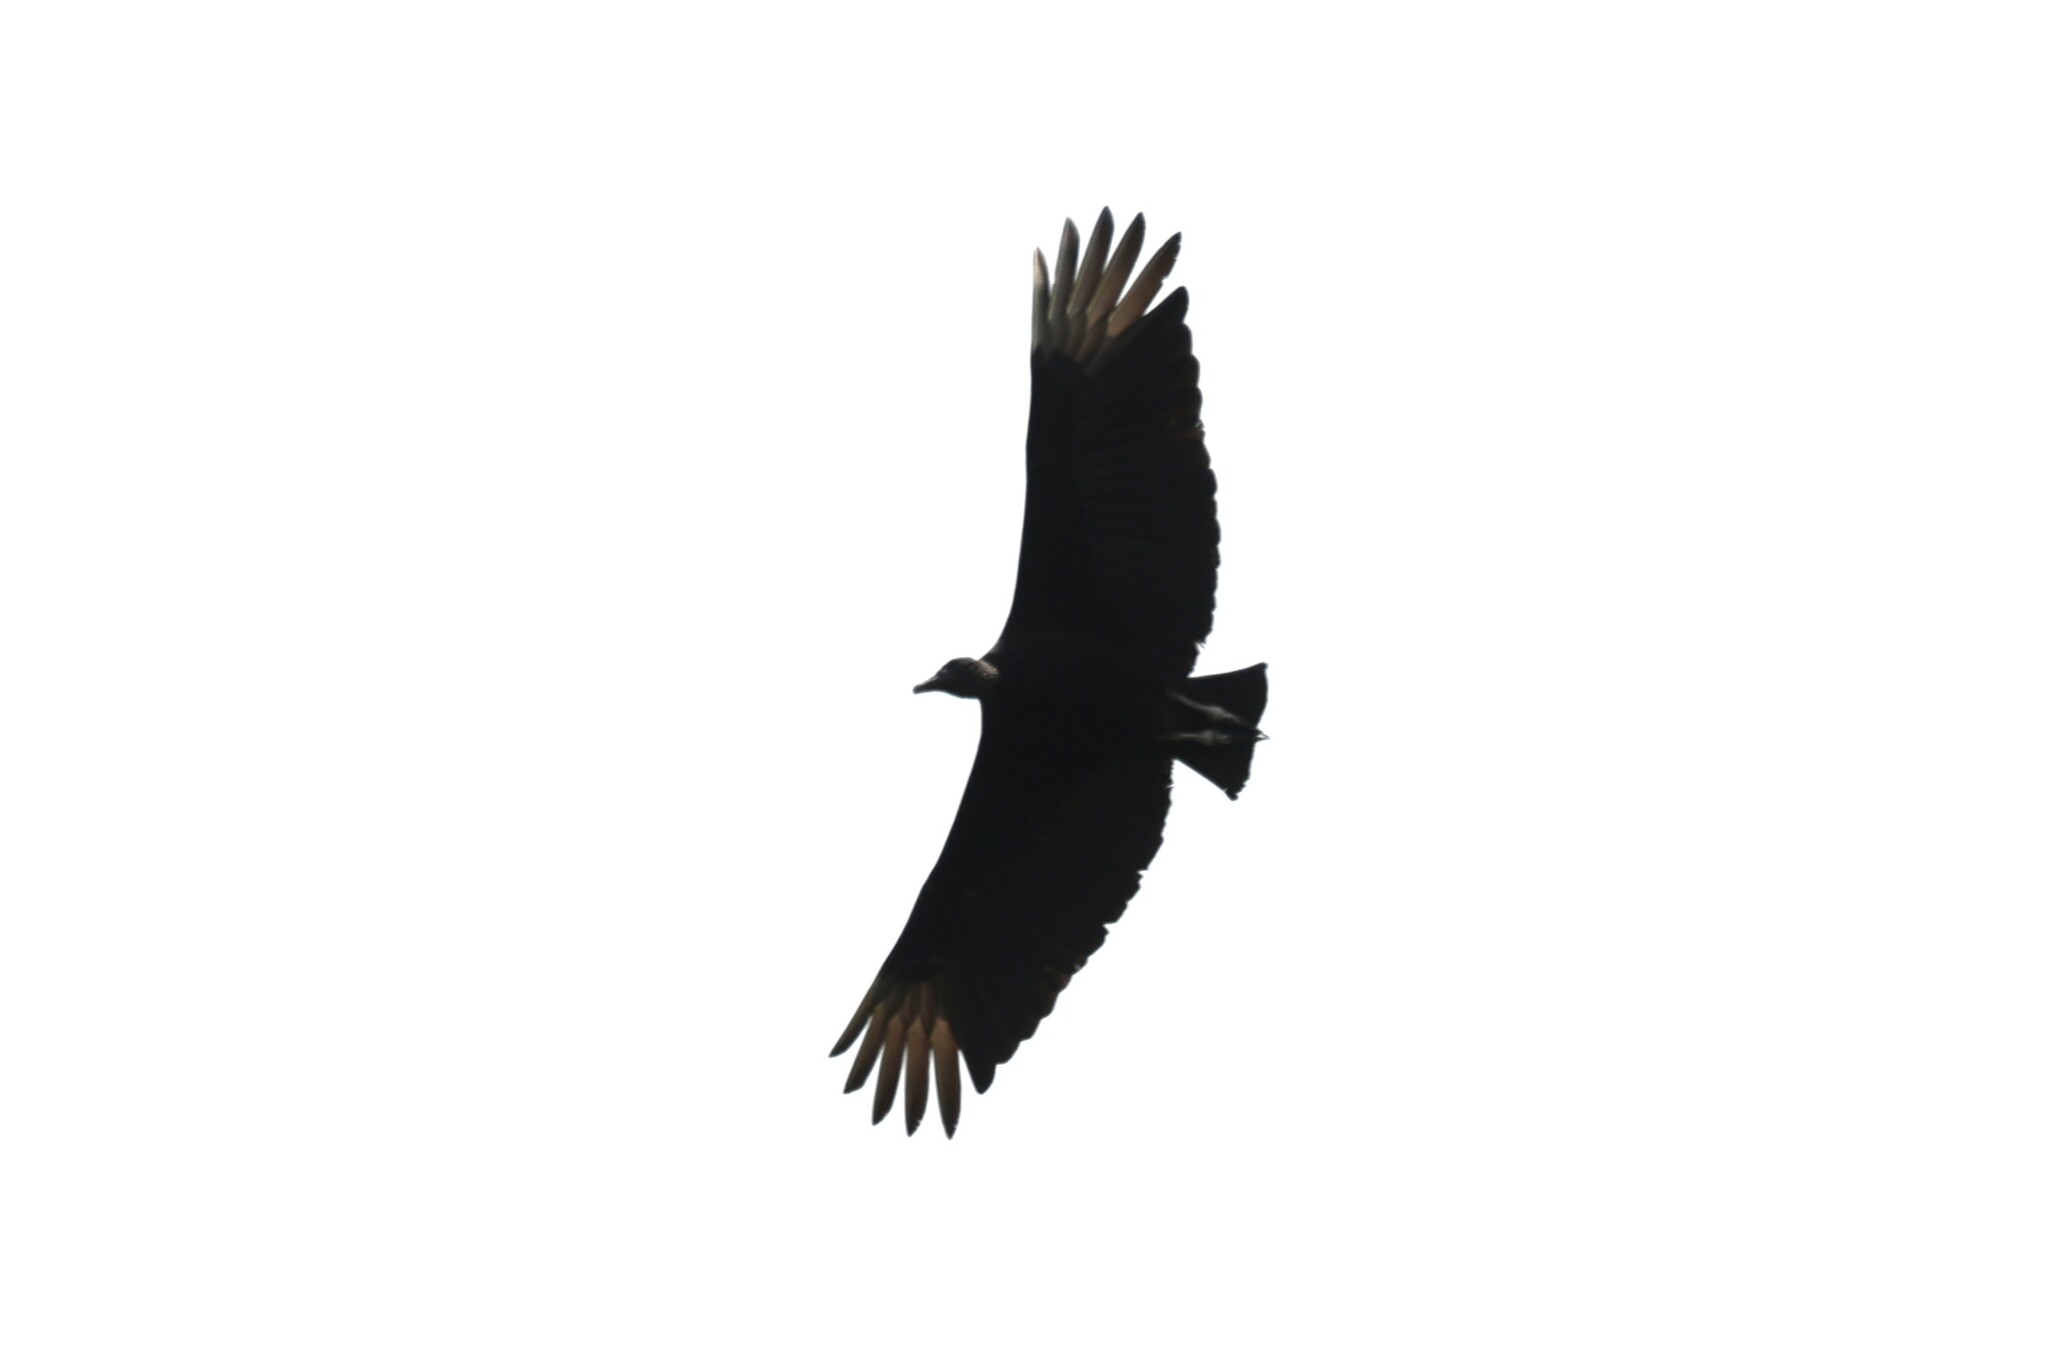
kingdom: Animalia
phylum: Chordata
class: Aves
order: Accipitriformes
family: Cathartidae
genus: Coragyps
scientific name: Coragyps atratus
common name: Black vulture
